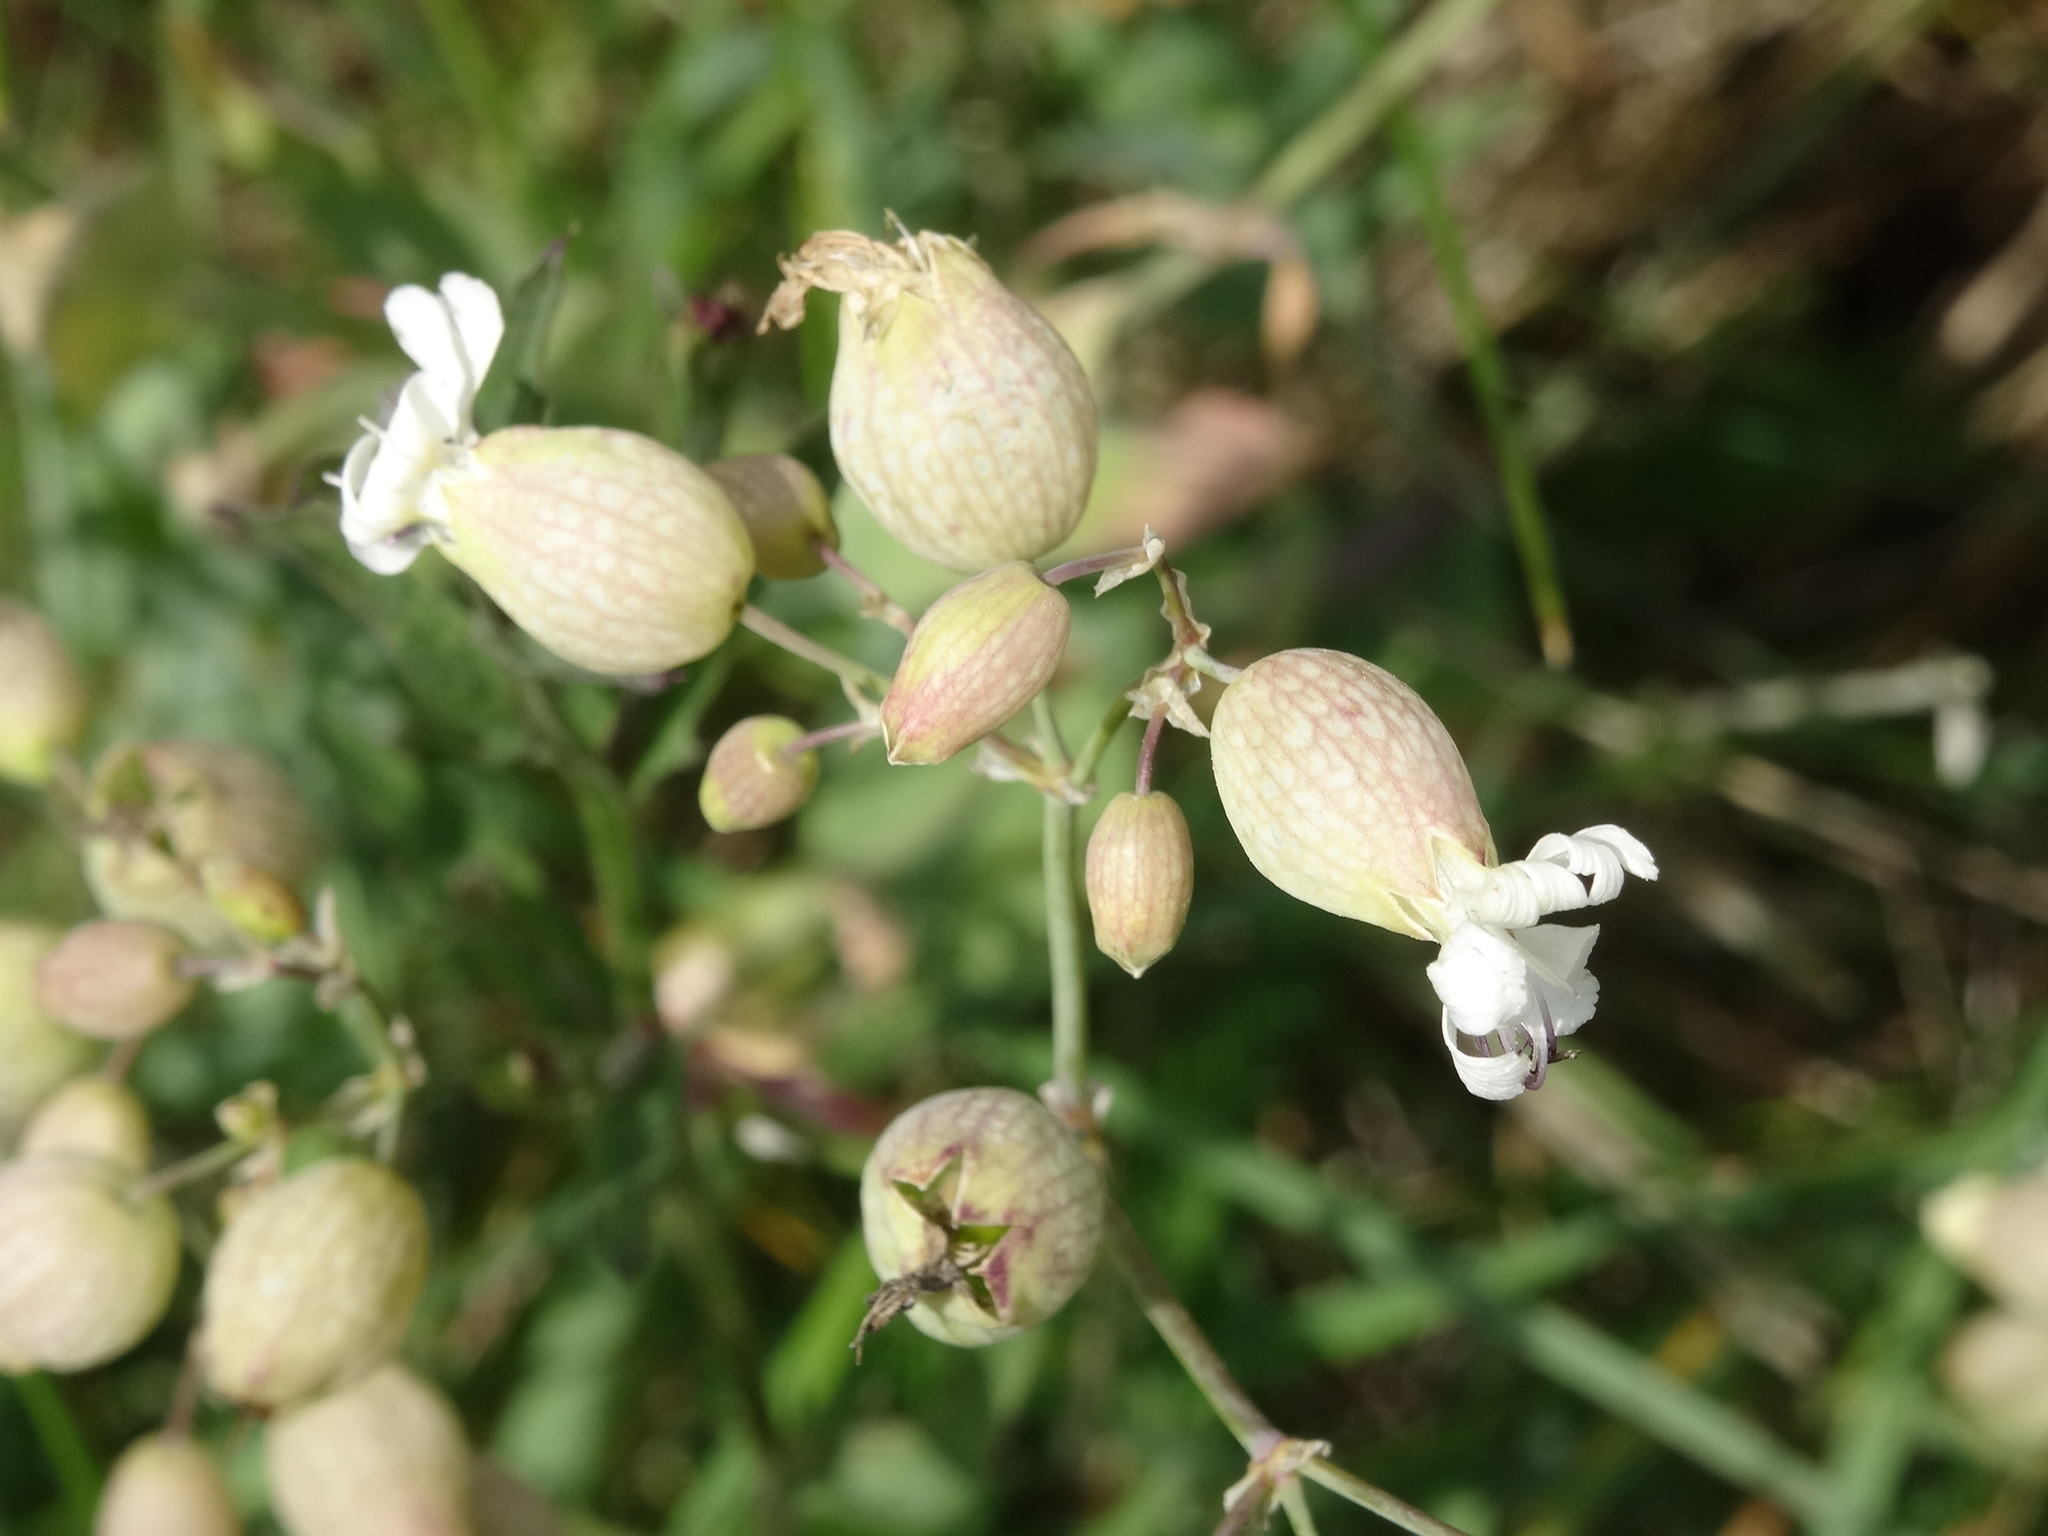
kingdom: Plantae
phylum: Tracheophyta
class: Magnoliopsida
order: Caryophyllales
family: Caryophyllaceae
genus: Silene
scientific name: Silene vulgaris
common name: Bladder campion
